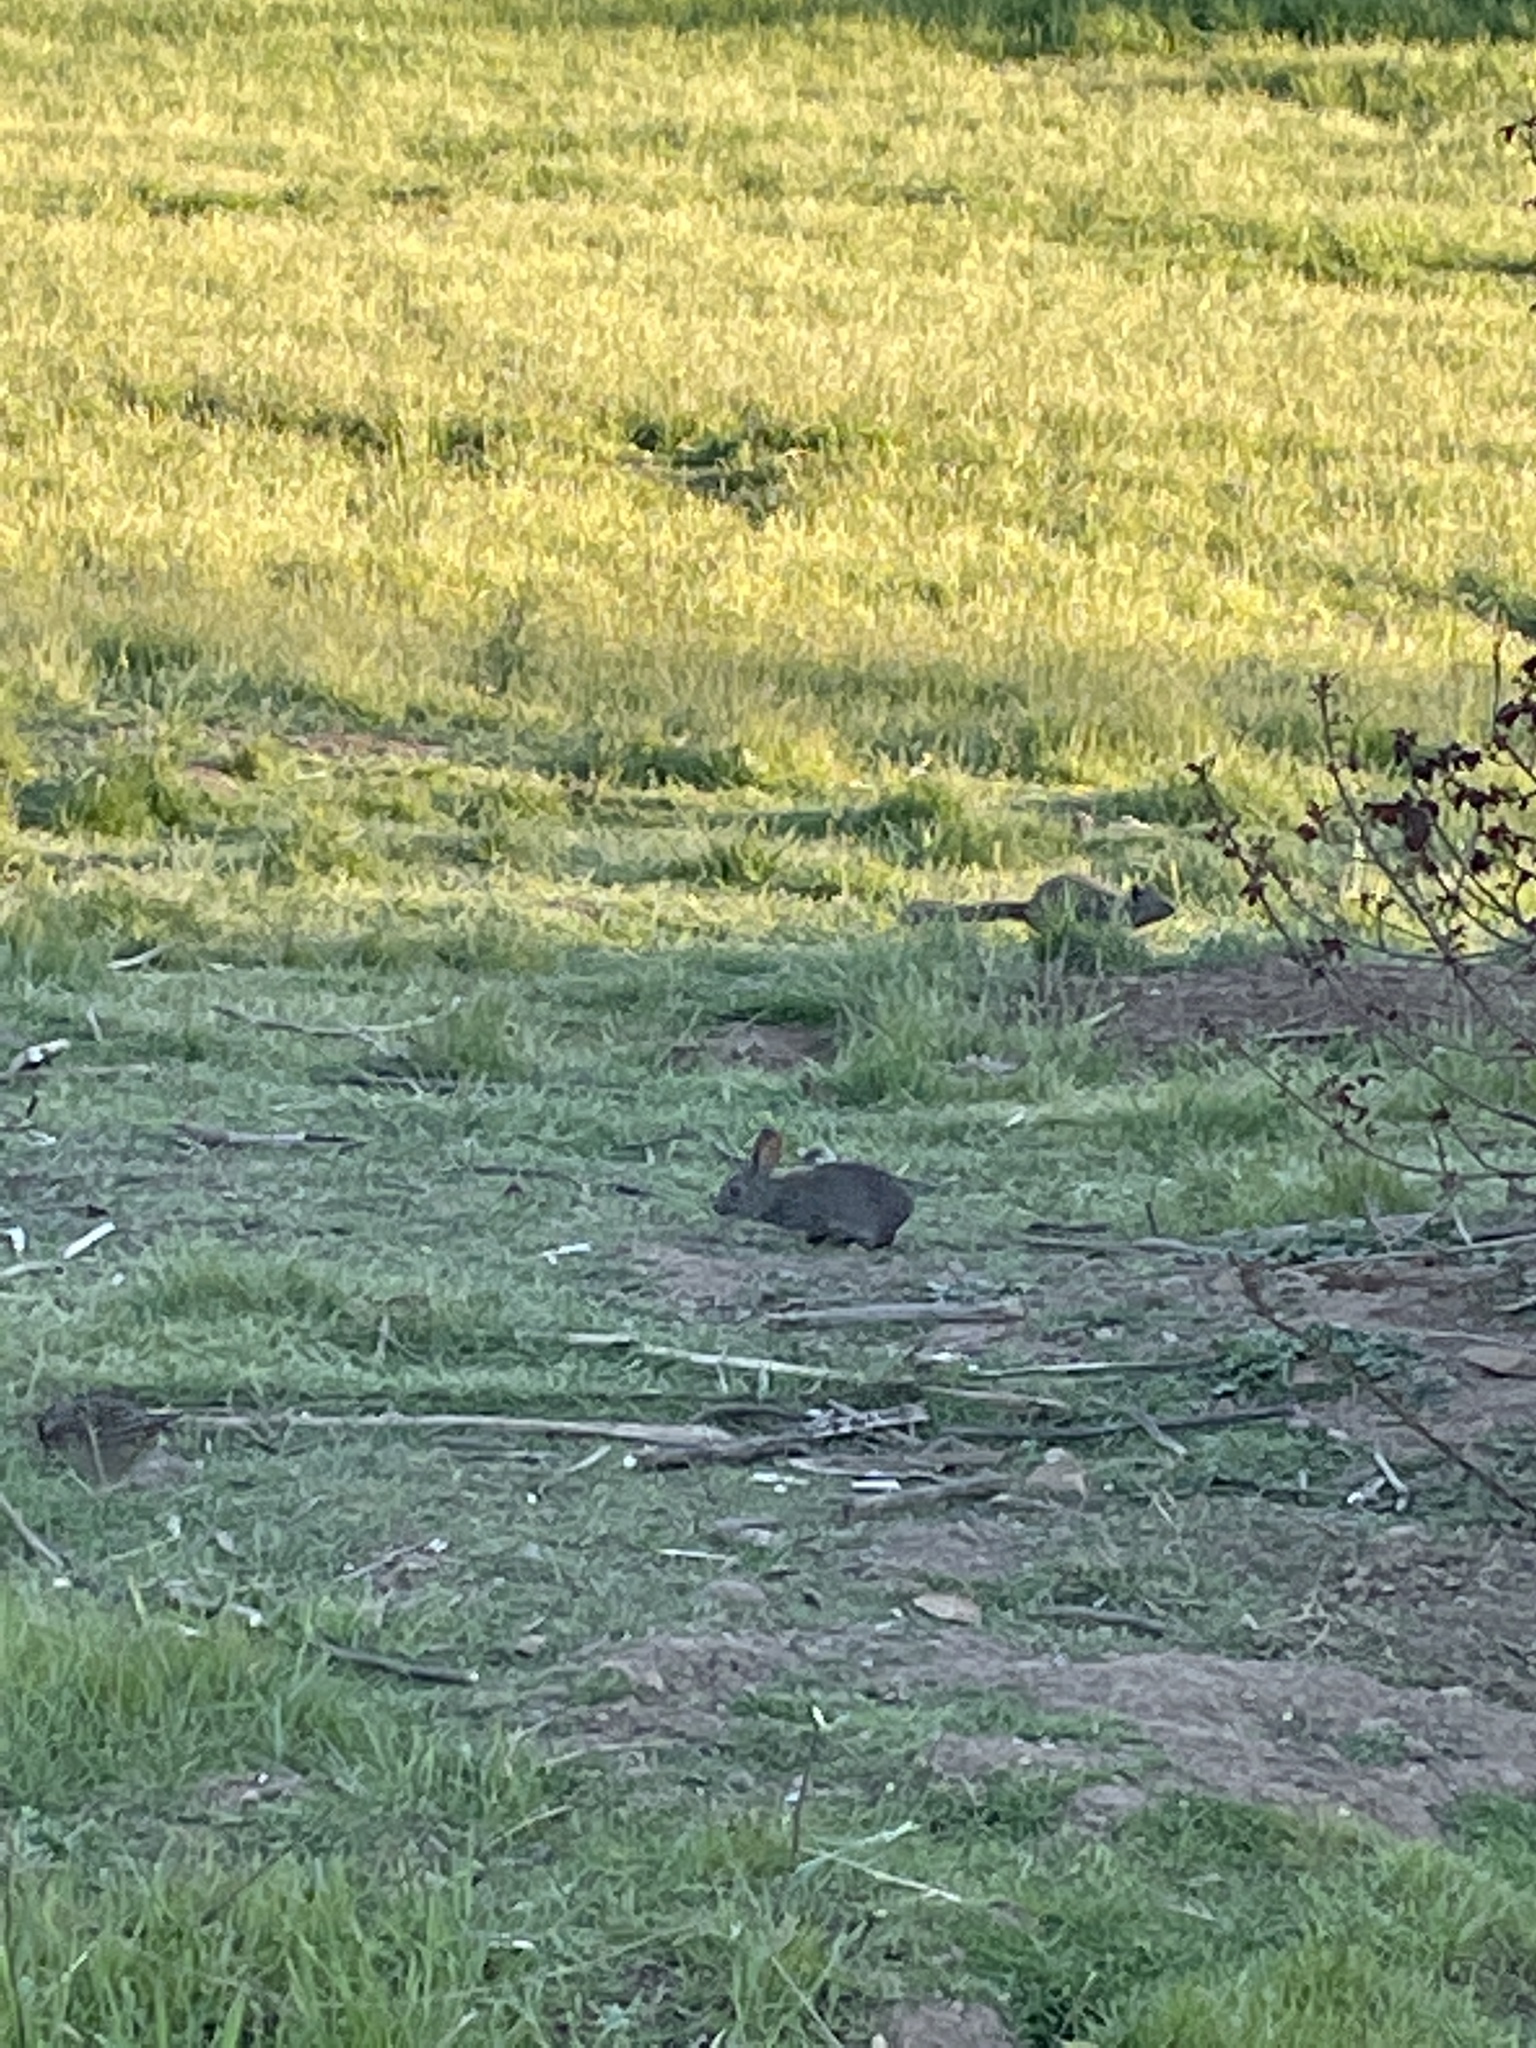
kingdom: Animalia
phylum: Chordata
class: Mammalia
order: Lagomorpha
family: Leporidae
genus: Sylvilagus
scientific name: Sylvilagus bachmani
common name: Brush rabbit
